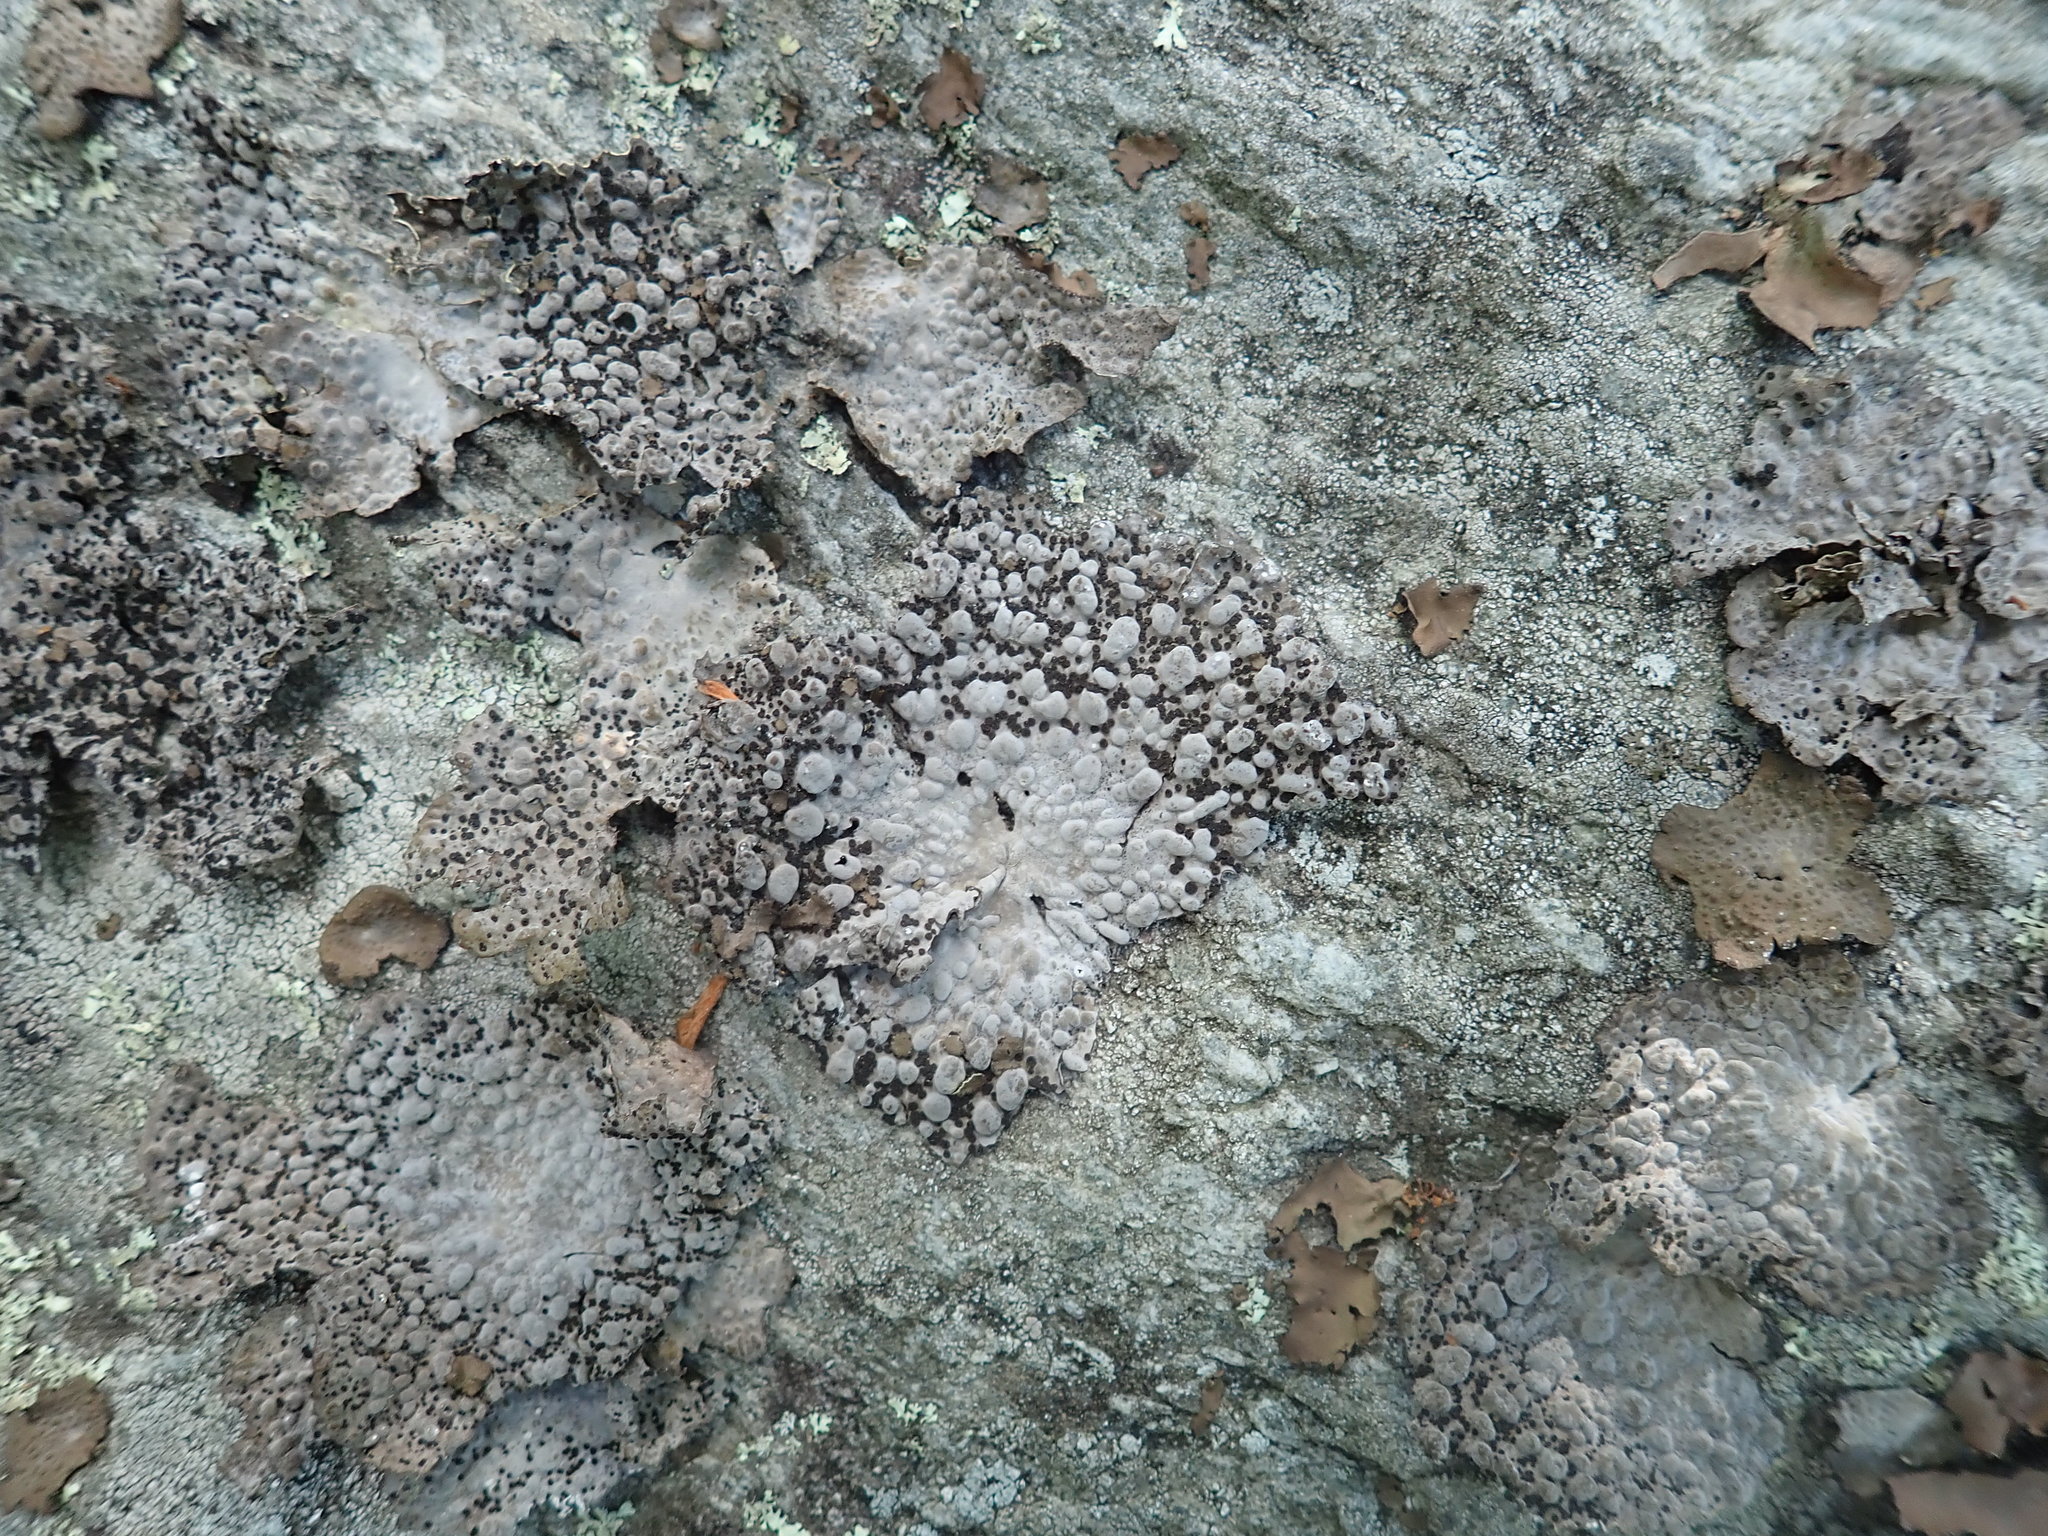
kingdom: Fungi
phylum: Ascomycota
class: Lecanoromycetes
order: Umbilicariales
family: Umbilicariaceae
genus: Lasallia
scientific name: Lasallia papulosa
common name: Common toadskin lichen
